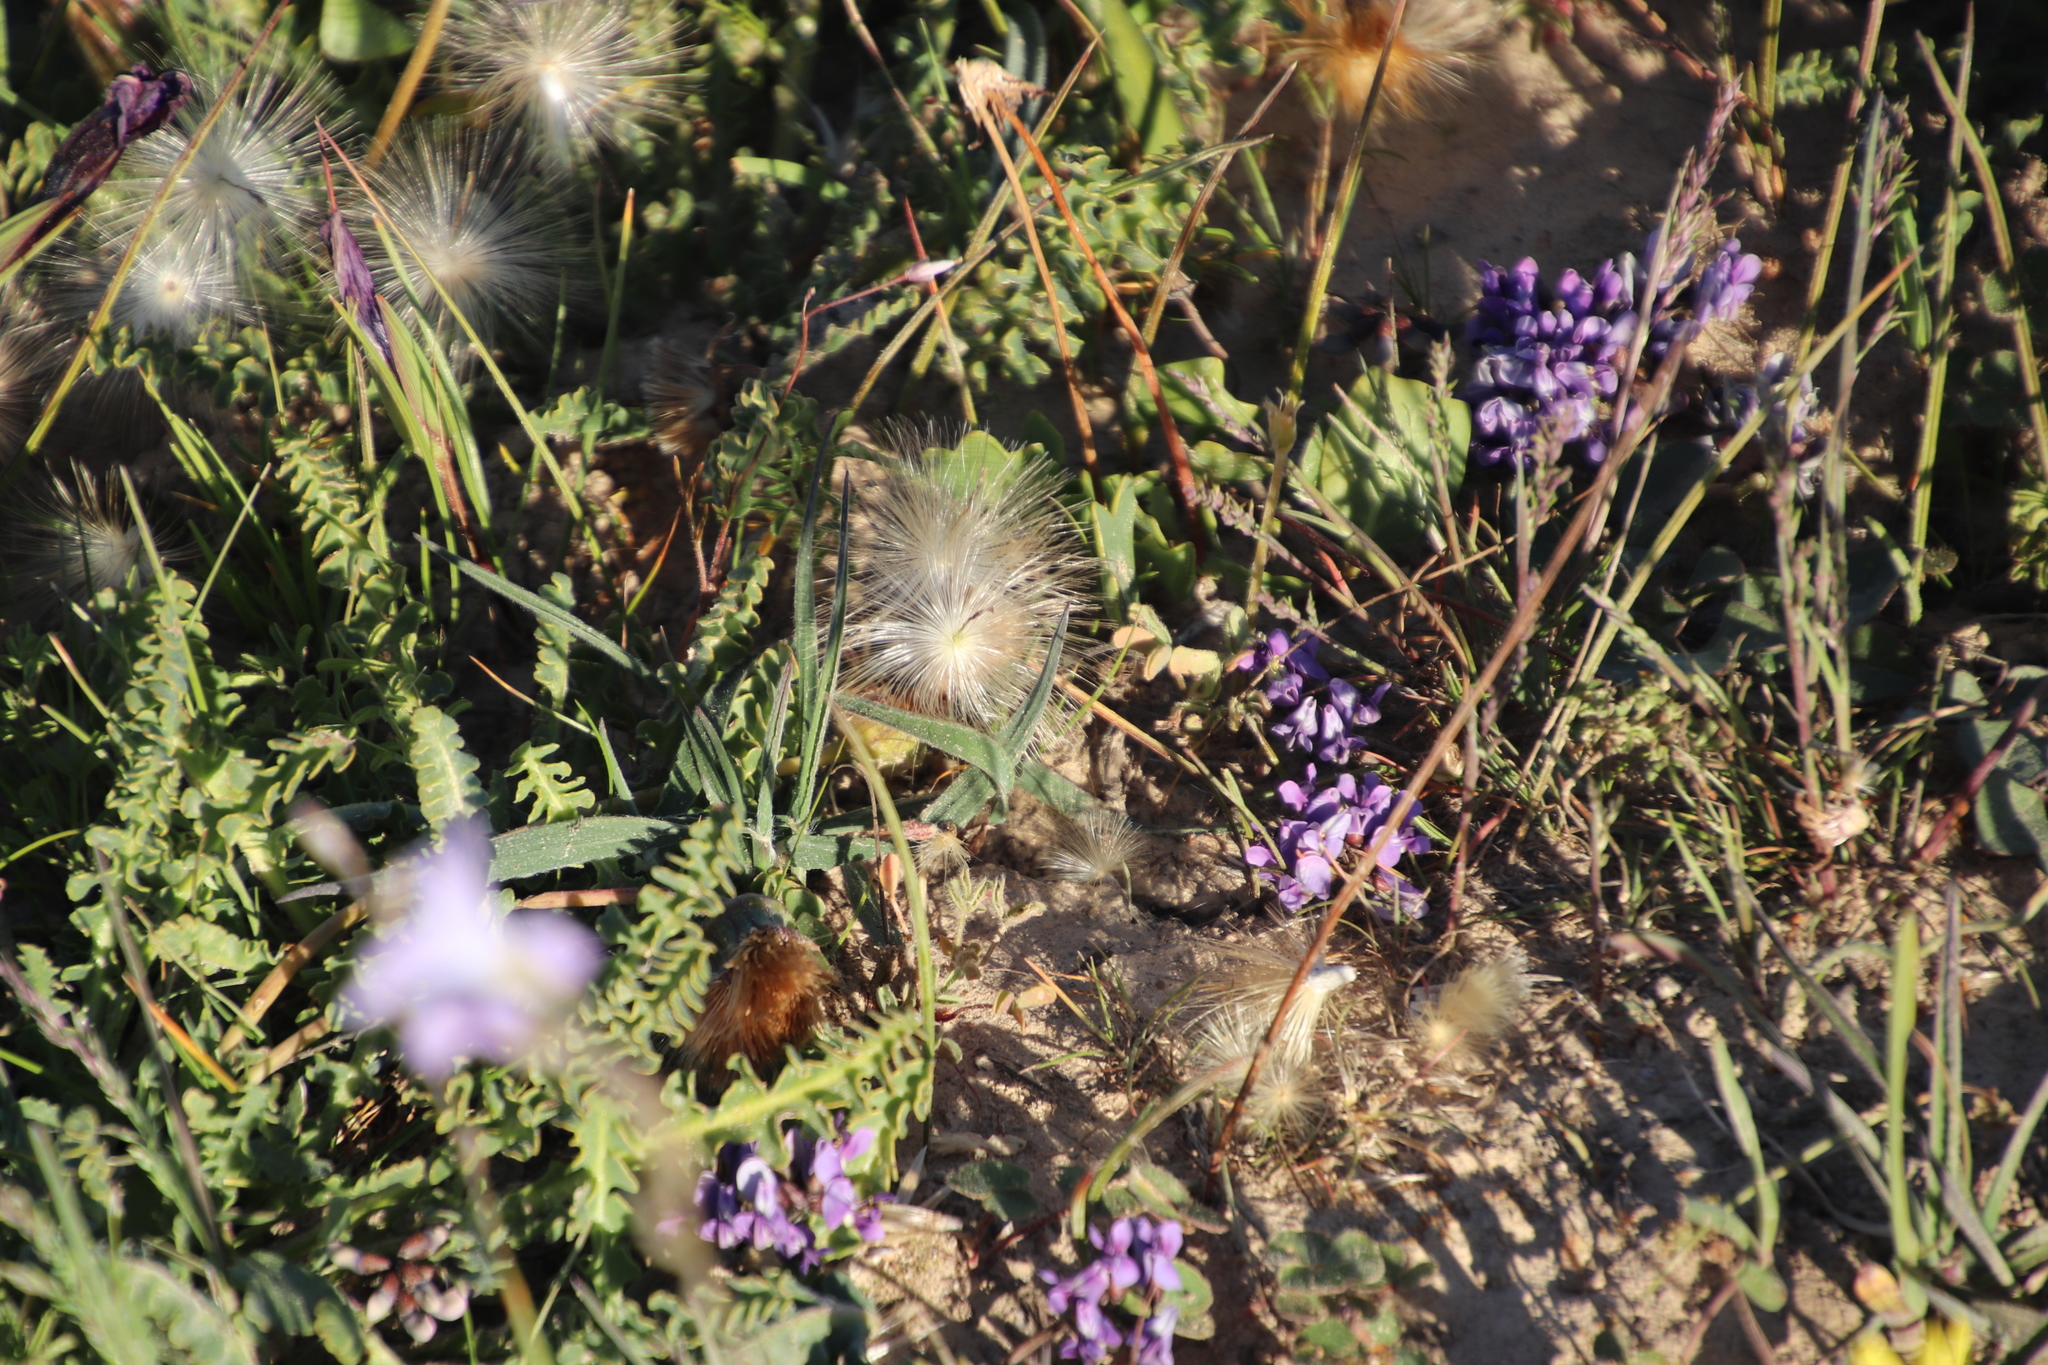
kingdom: Plantae
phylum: Tracheophyta
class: Magnoliopsida
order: Asterales
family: Asteraceae
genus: Othonna
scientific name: Othonna hederifolia
